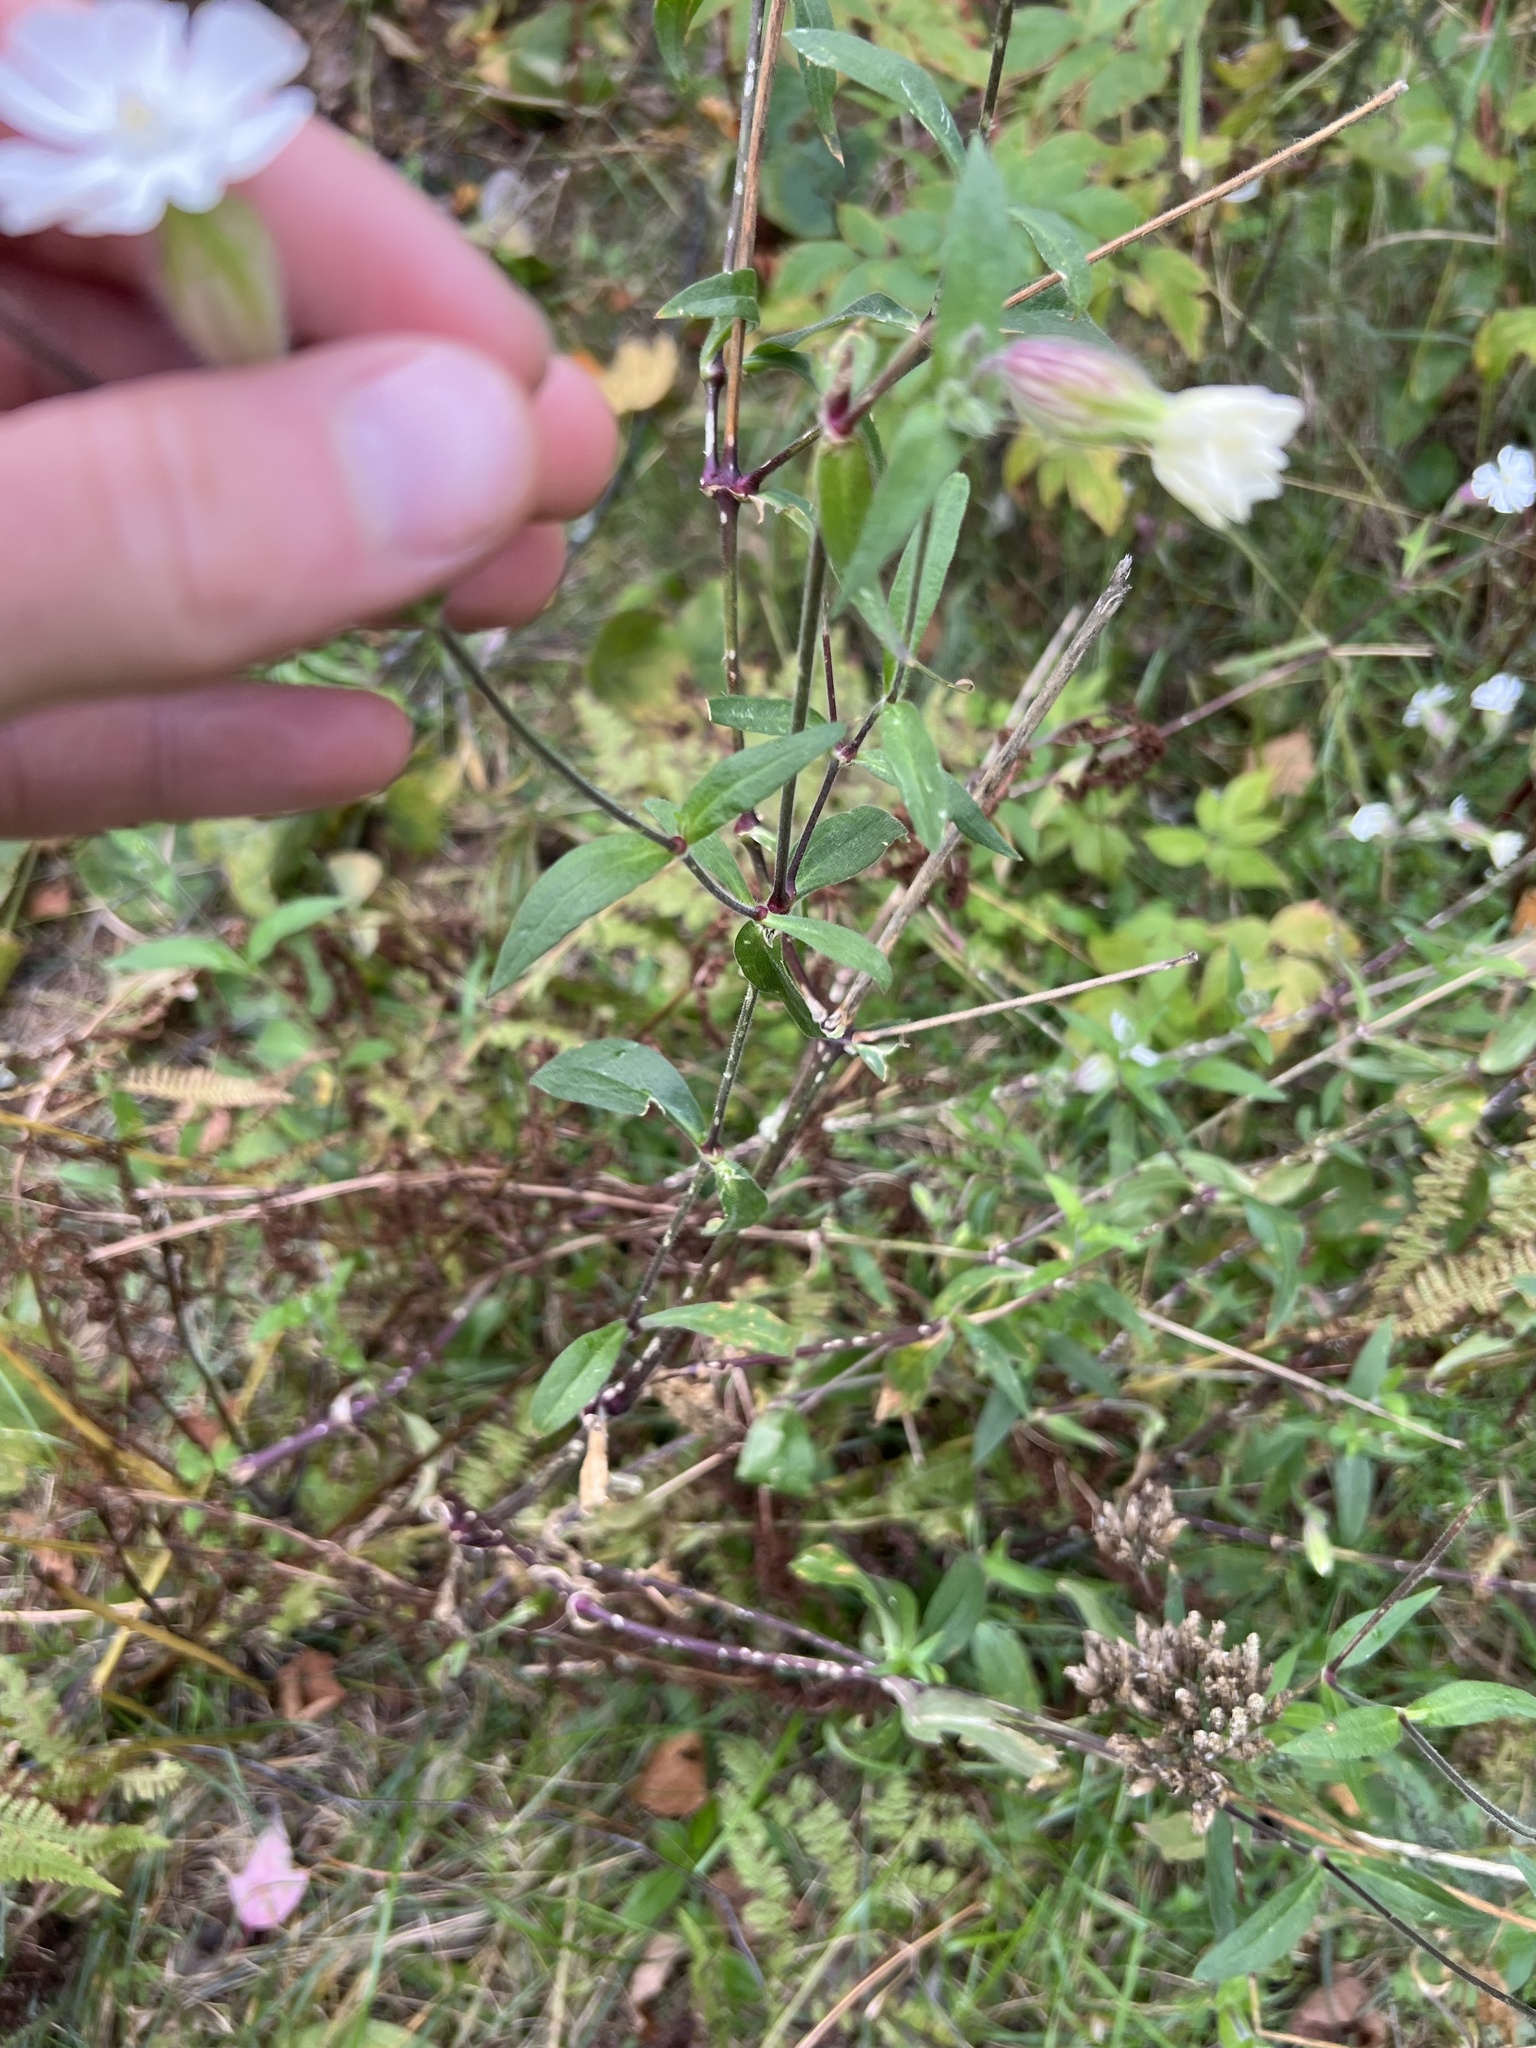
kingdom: Plantae
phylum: Tracheophyta
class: Magnoliopsida
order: Caryophyllales
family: Caryophyllaceae
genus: Silene
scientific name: Silene latifolia
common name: White campion
